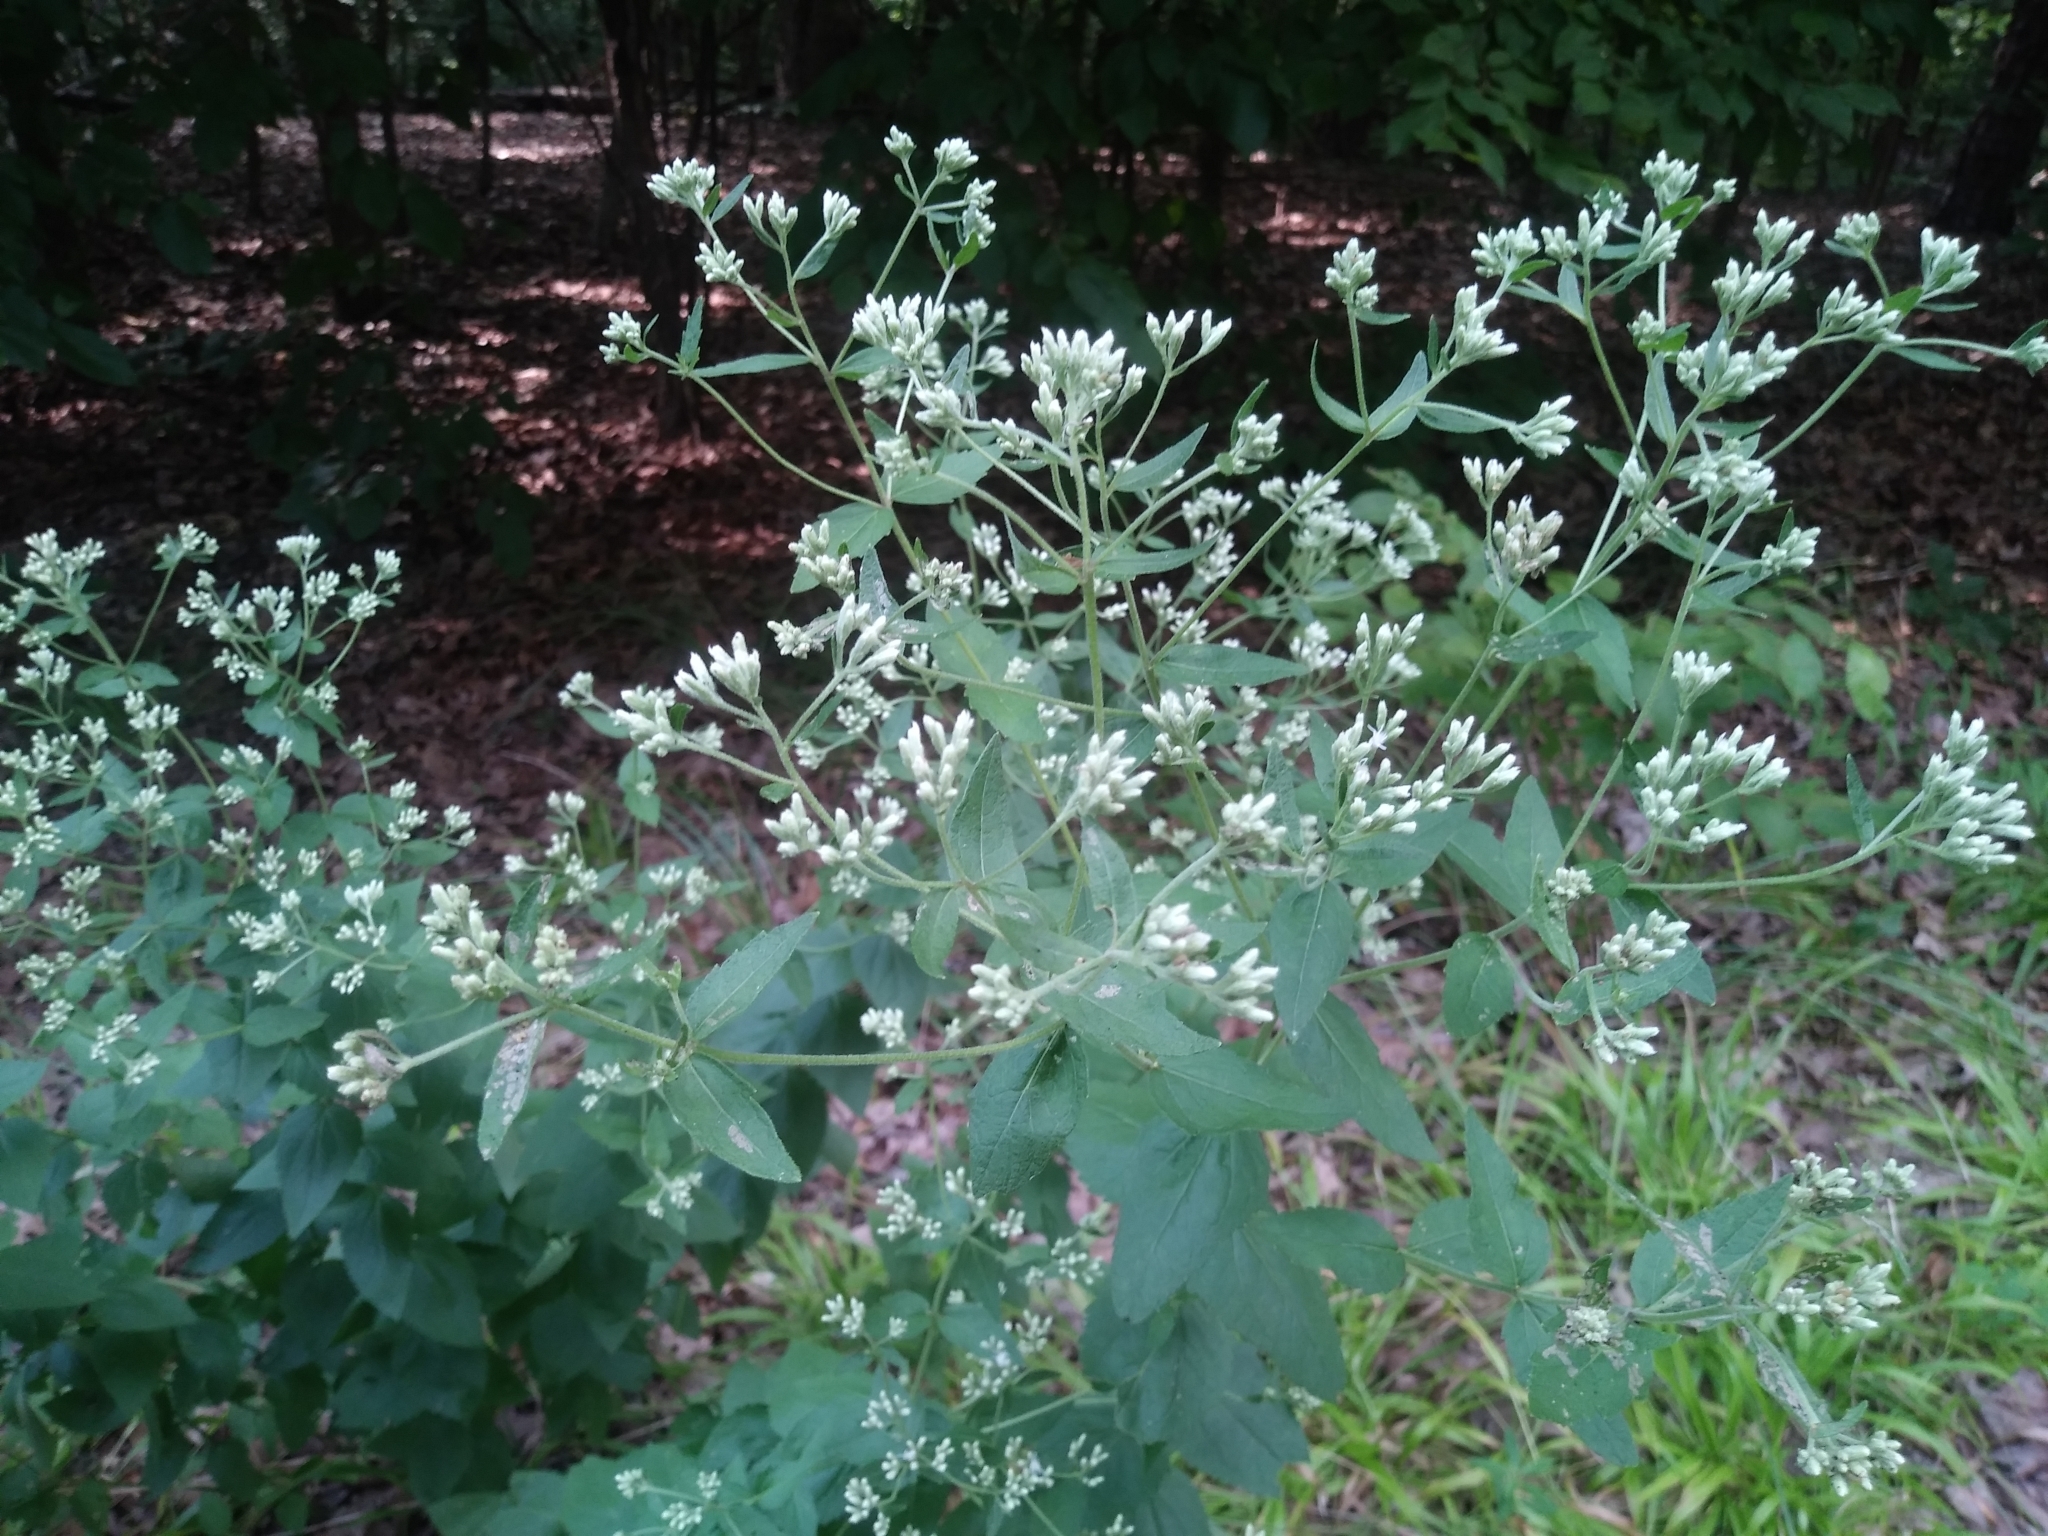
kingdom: Plantae
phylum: Tracheophyta
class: Magnoliopsida
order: Asterales
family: Asteraceae
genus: Eupatorium
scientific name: Eupatorium godfreyanum
